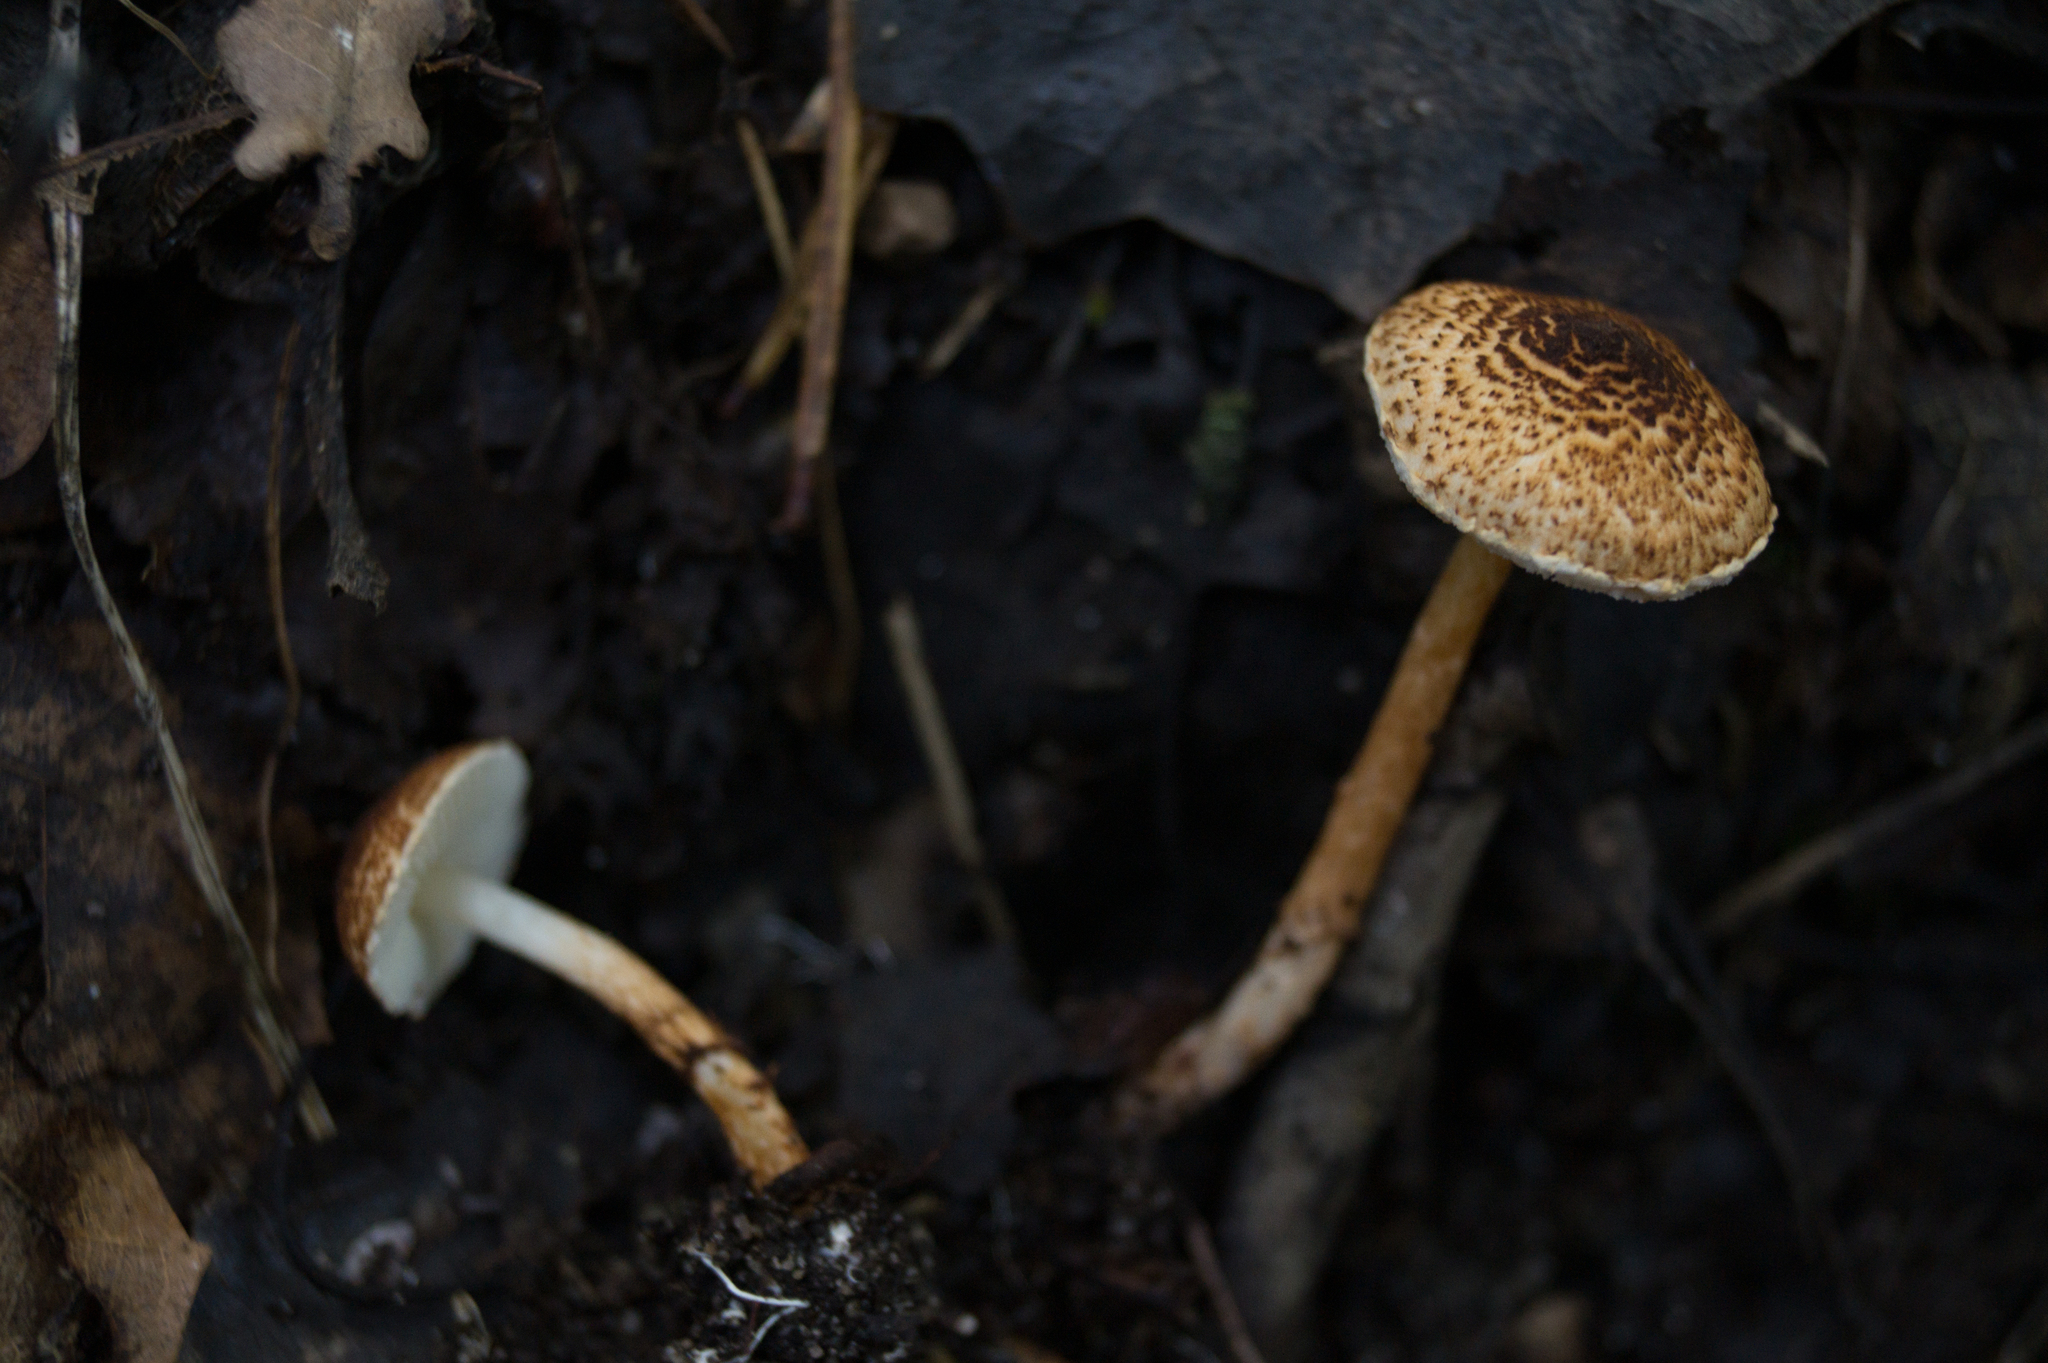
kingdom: Fungi
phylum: Basidiomycota
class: Agaricomycetes
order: Agaricales
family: Agaricaceae
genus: Lepiota
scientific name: Lepiota boudieri
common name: Girdled dapperling
